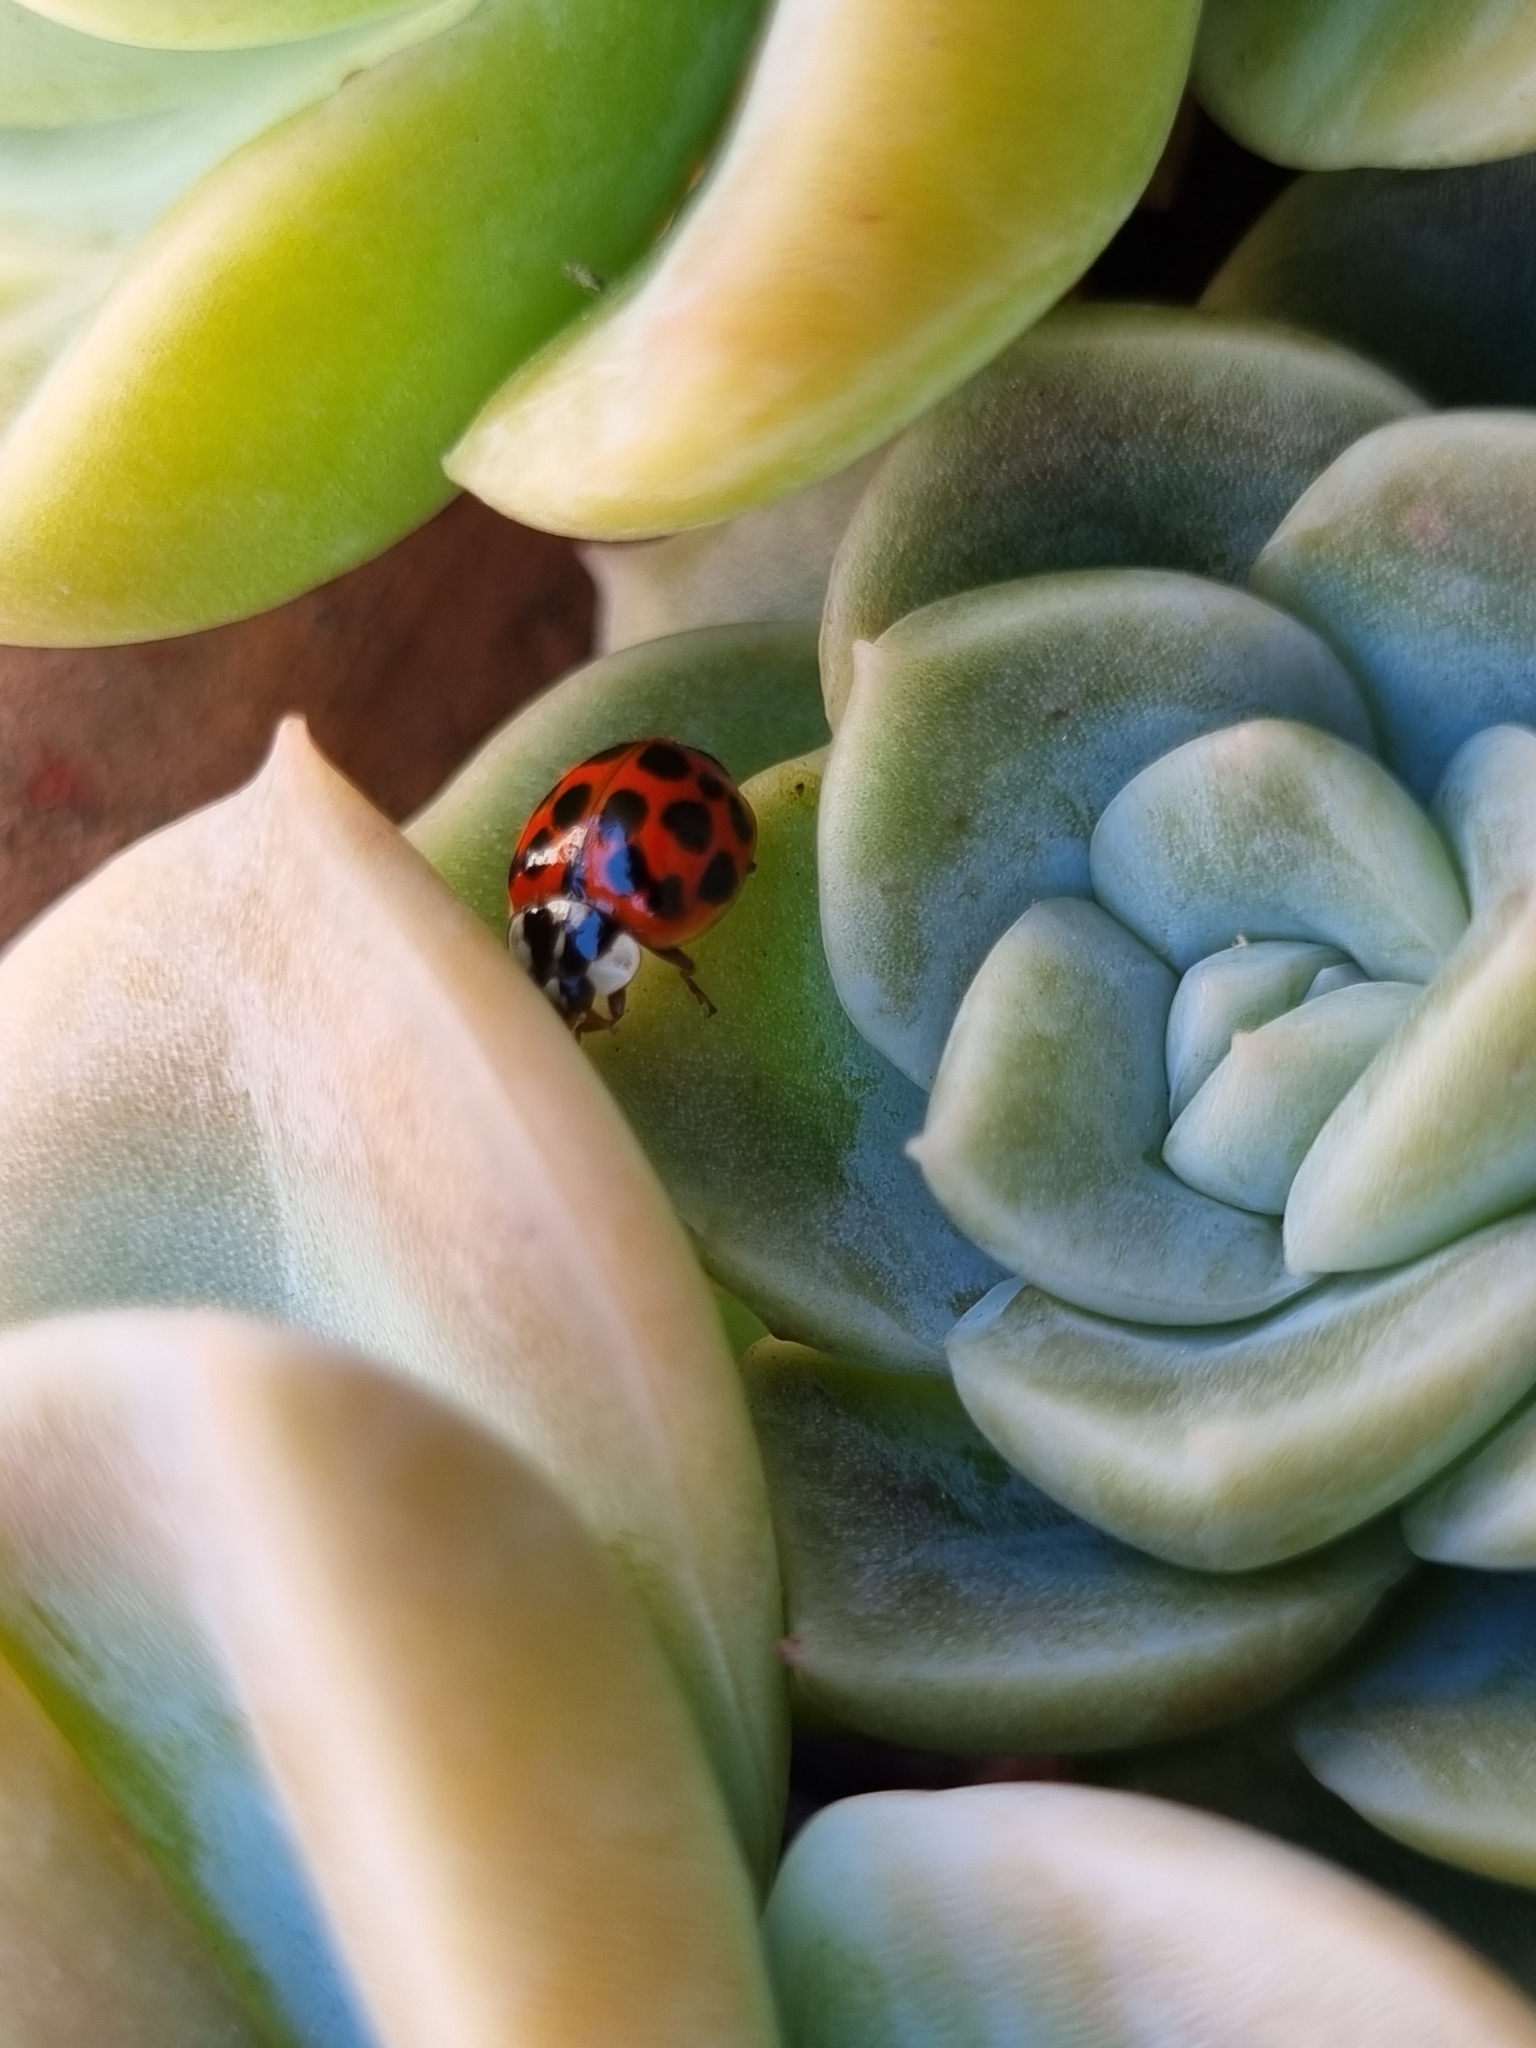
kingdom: Animalia
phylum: Arthropoda
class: Insecta
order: Coleoptera
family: Coccinellidae
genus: Harmonia
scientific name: Harmonia axyridis
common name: Harlequin ladybird
